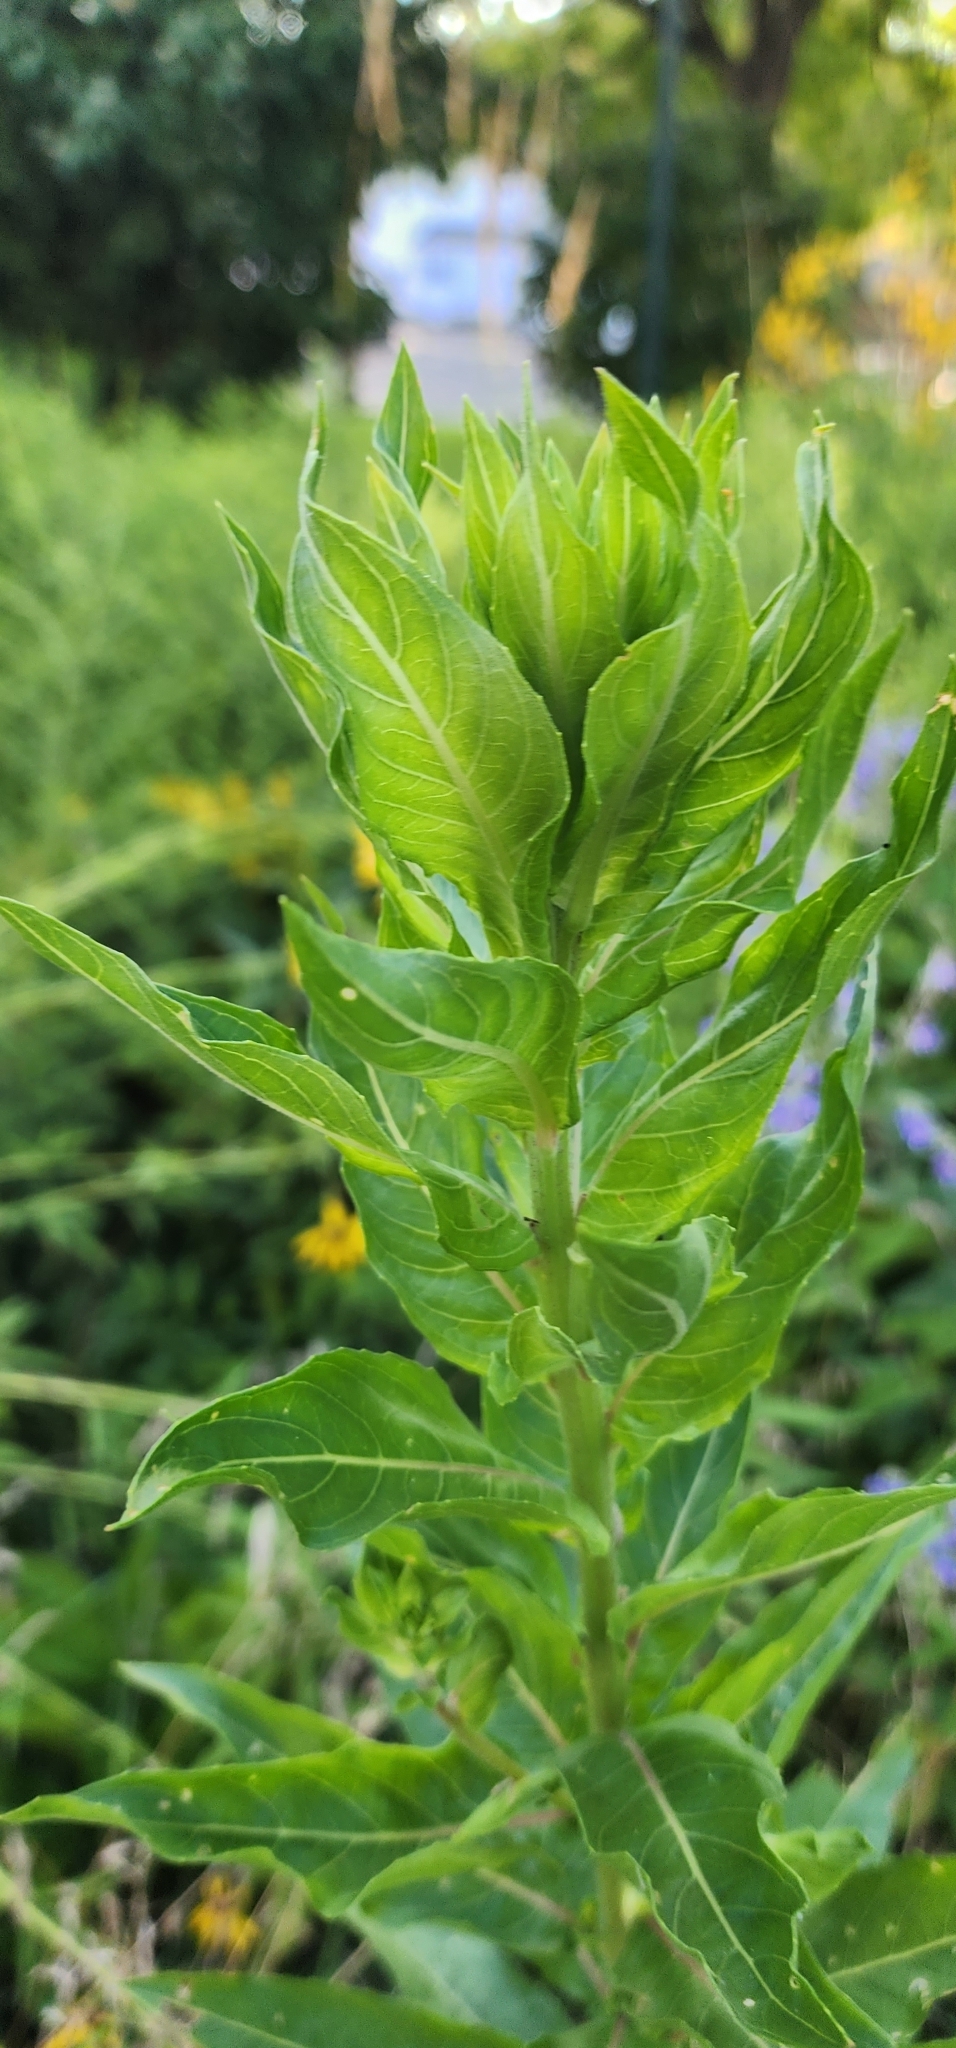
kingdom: Plantae
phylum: Tracheophyta
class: Magnoliopsida
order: Myrtales
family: Onagraceae
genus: Oenothera
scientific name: Oenothera biennis
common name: Common evening-primrose
